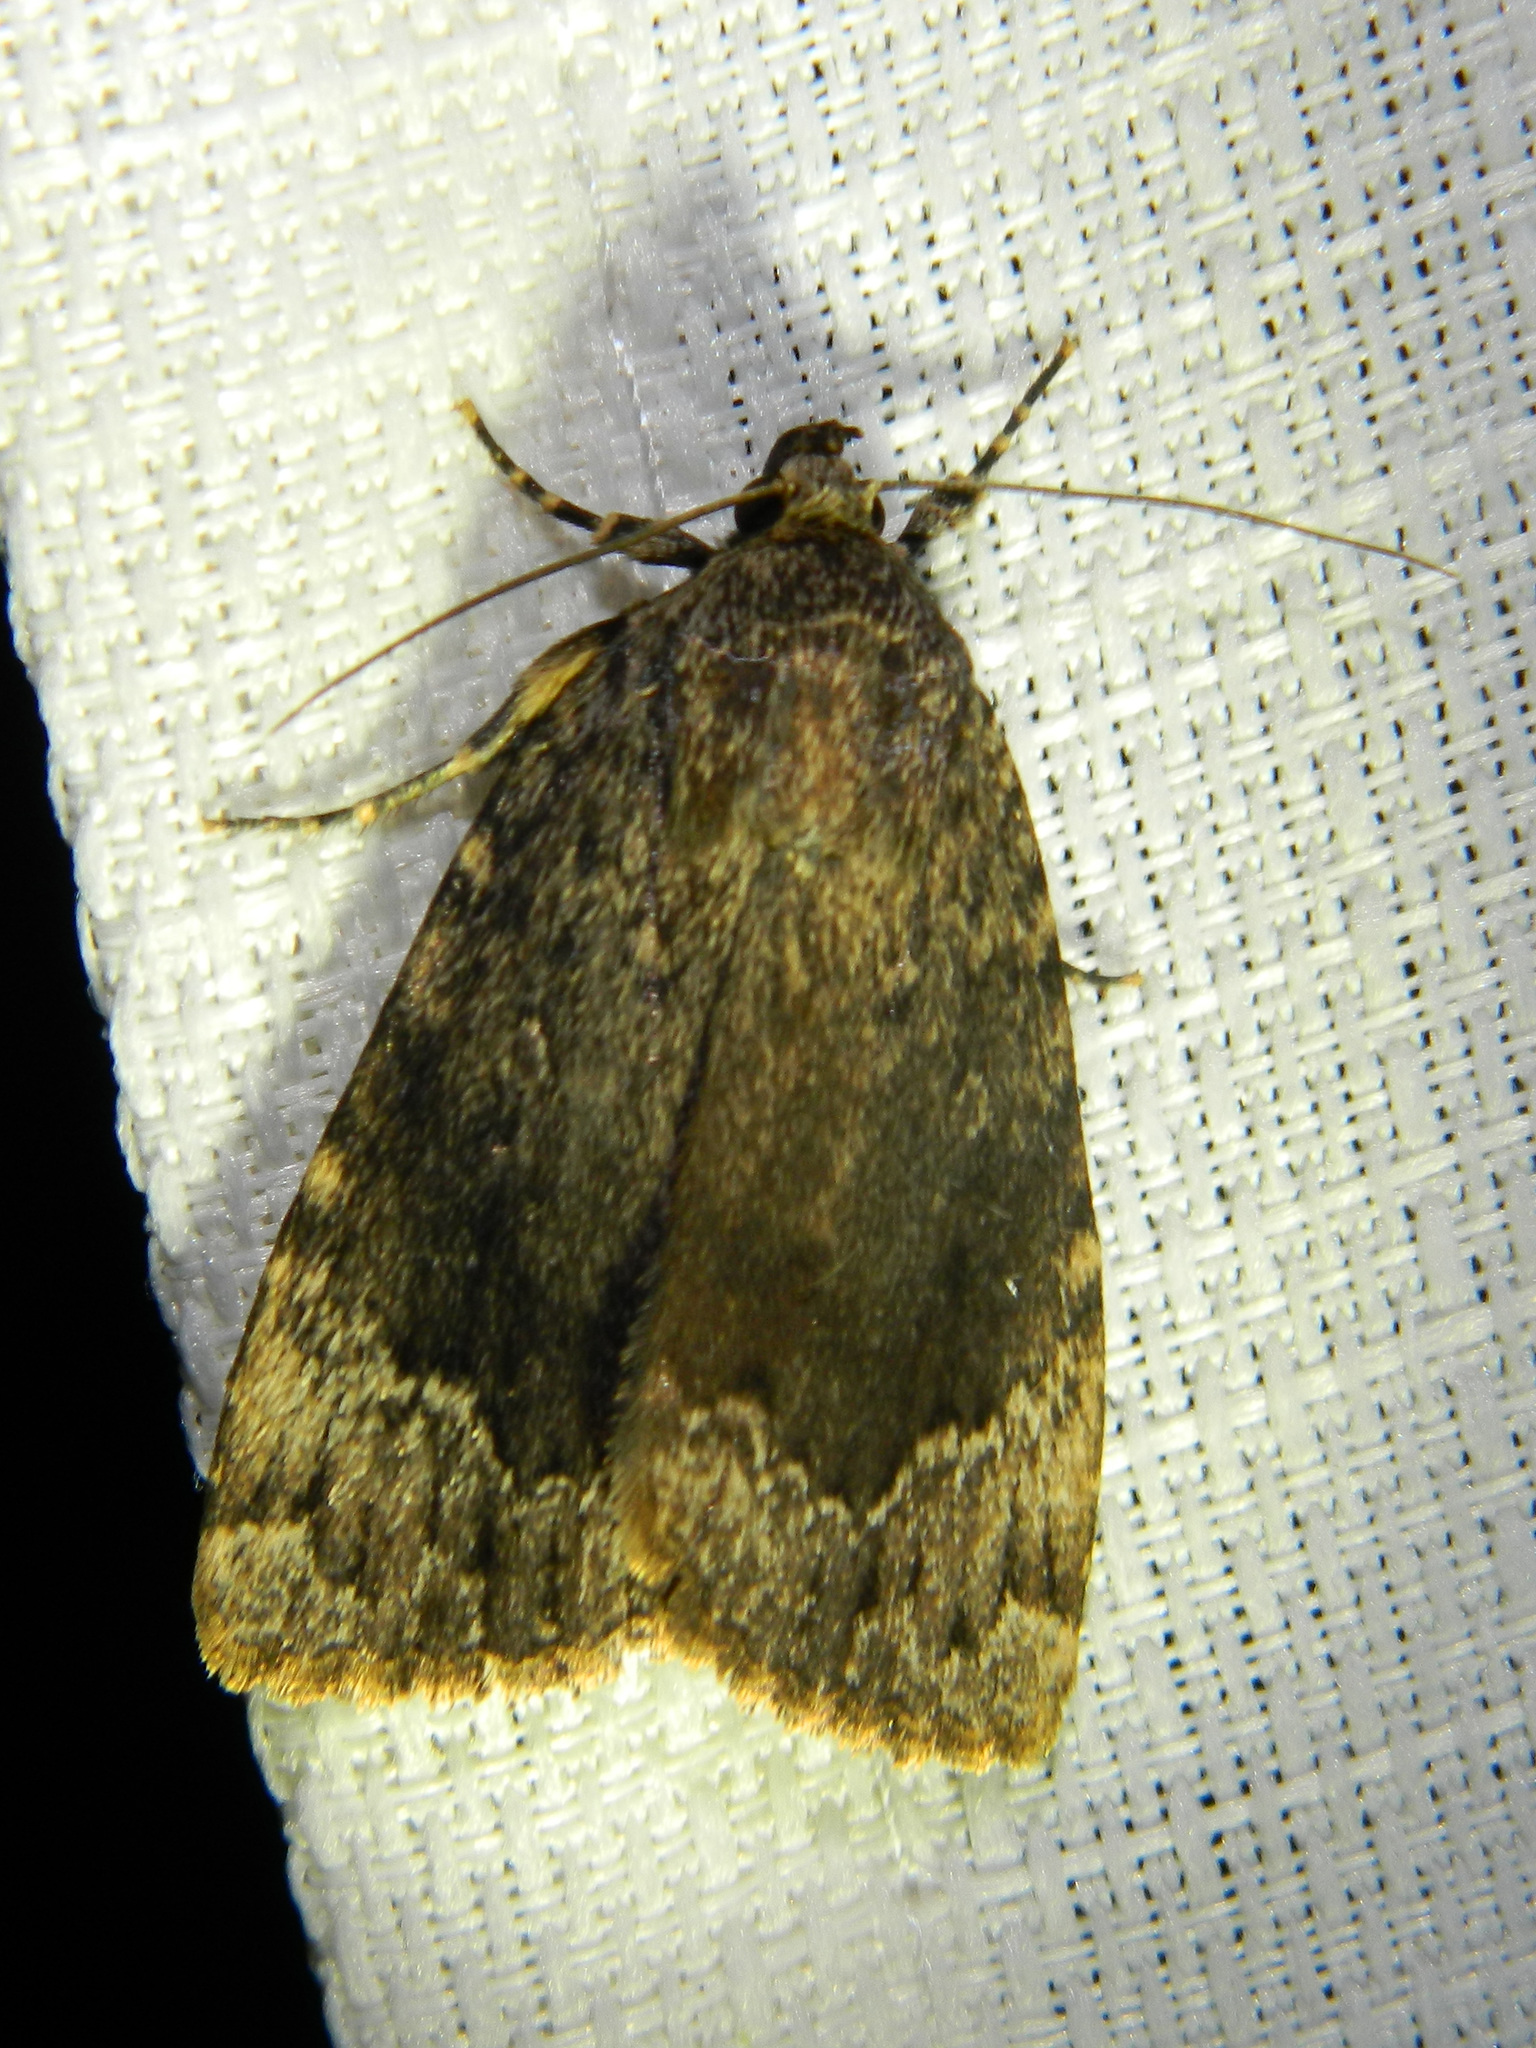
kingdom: Animalia
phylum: Arthropoda
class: Insecta
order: Lepidoptera
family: Noctuidae
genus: Amphipyra
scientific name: Amphipyra pyramidoides
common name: American copper underwing
